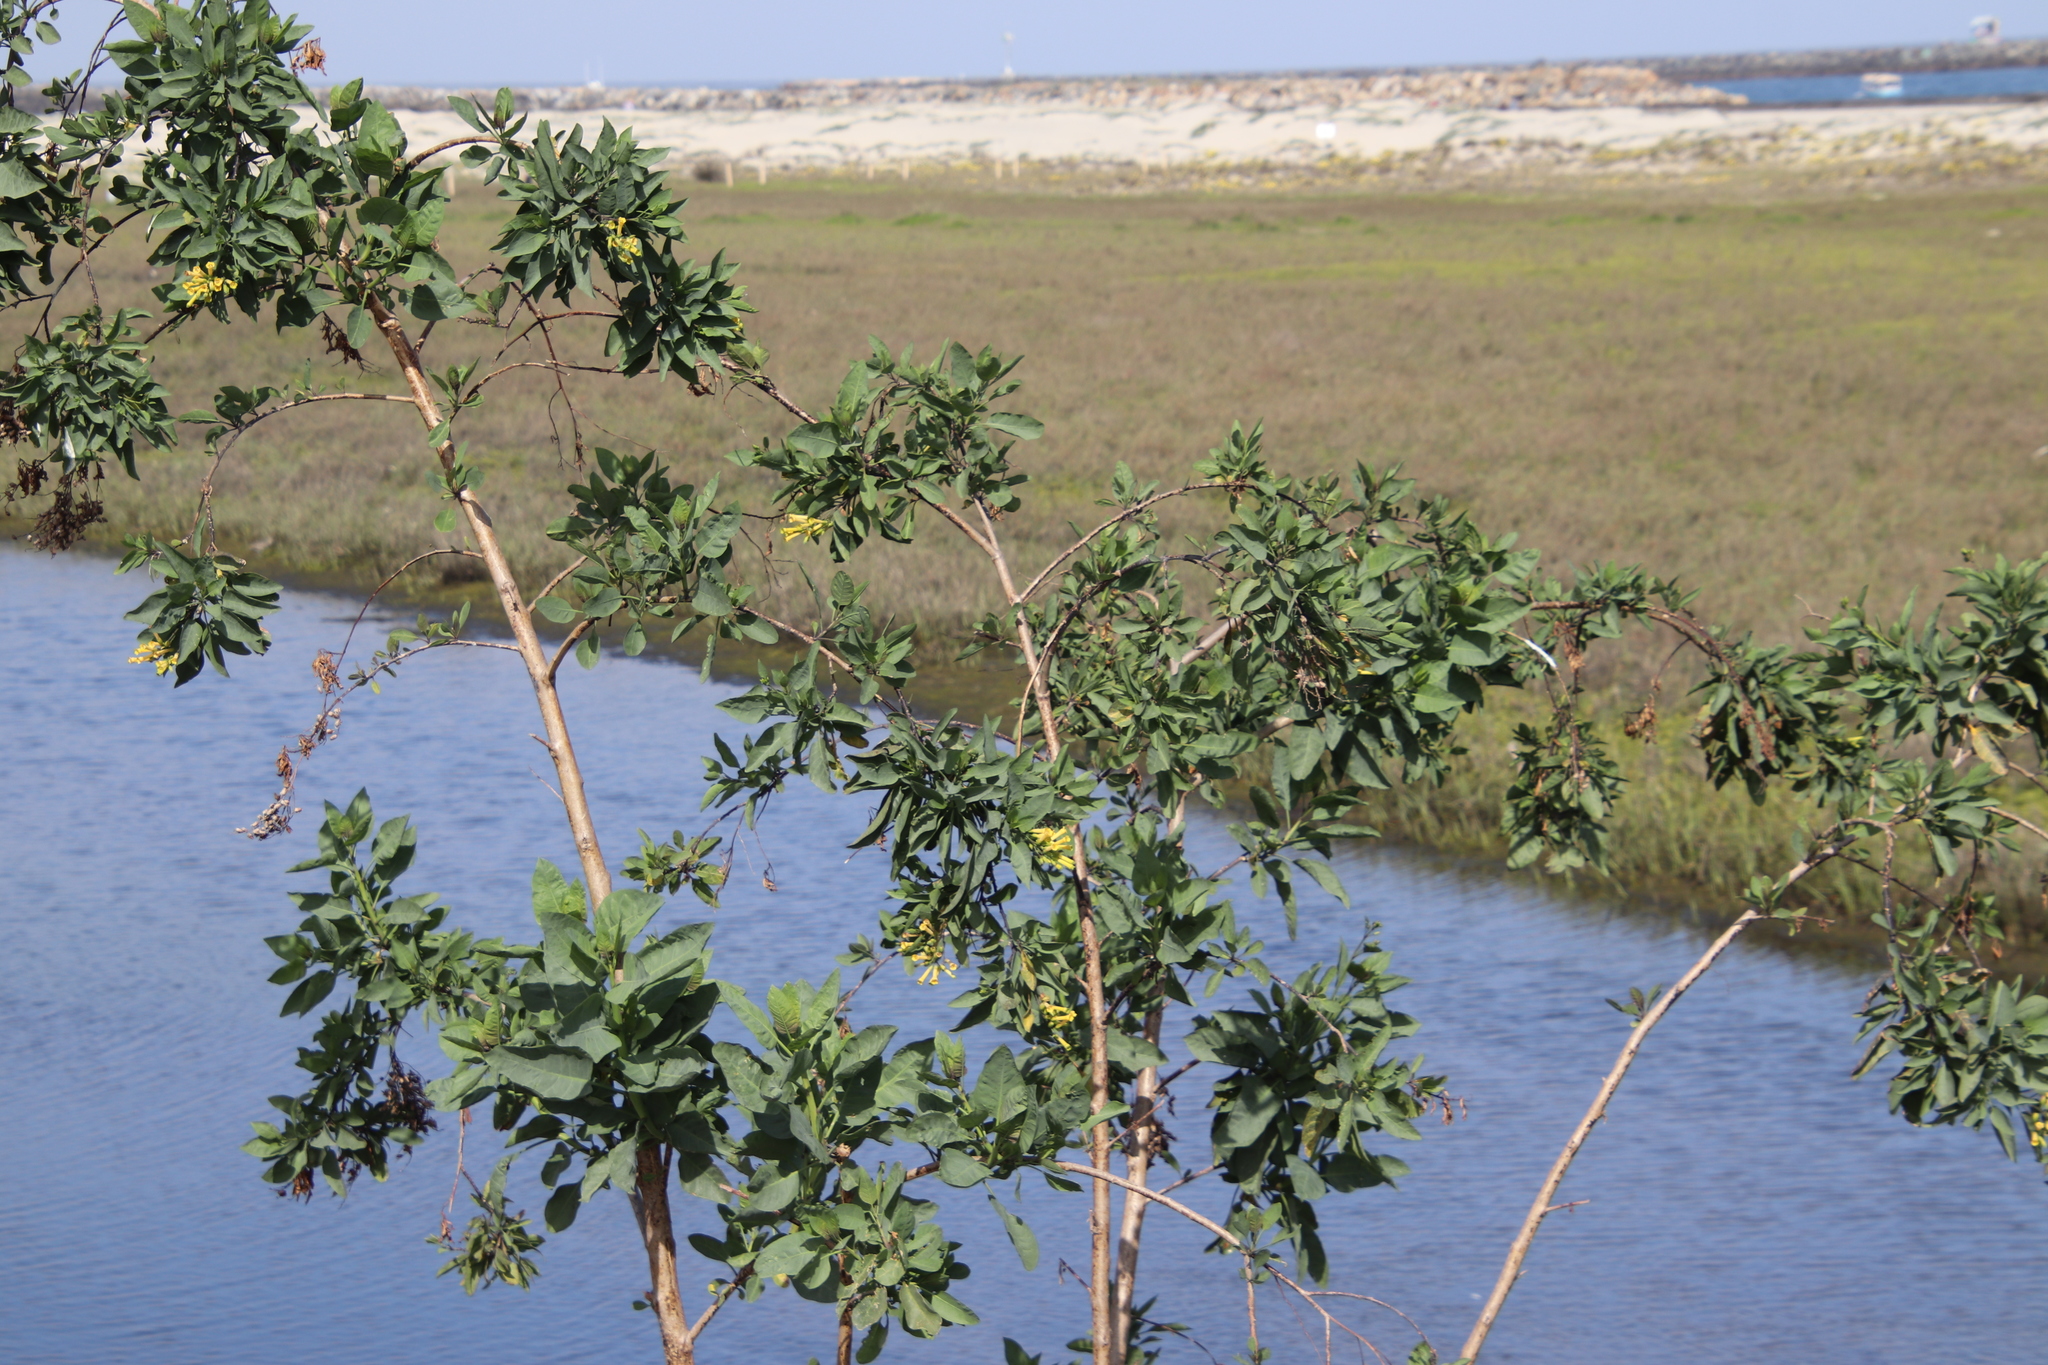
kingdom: Plantae
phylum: Tracheophyta
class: Magnoliopsida
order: Solanales
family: Solanaceae
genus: Nicotiana
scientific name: Nicotiana glauca
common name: Tree tobacco
